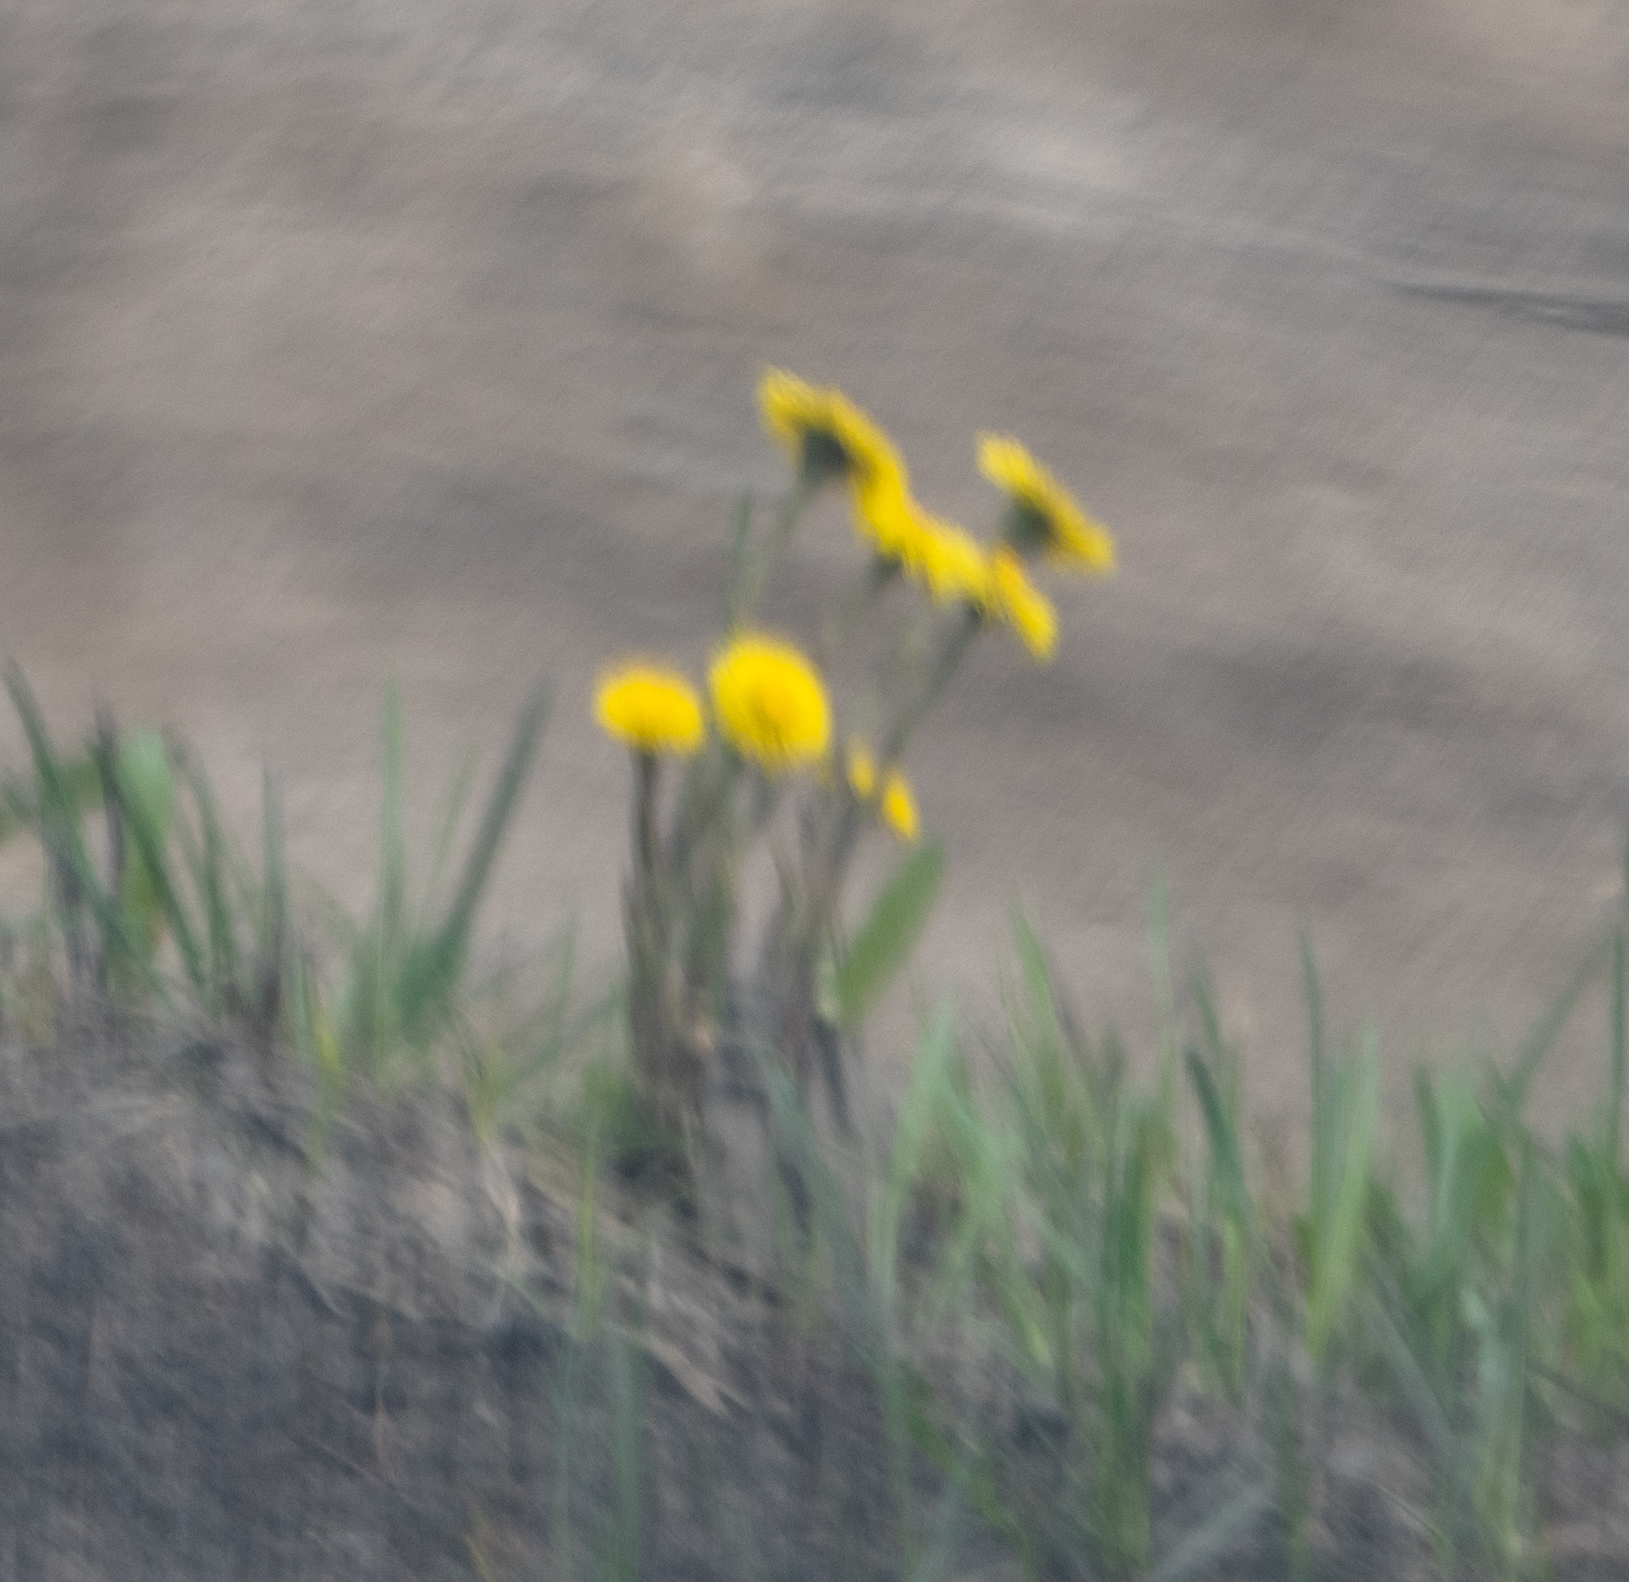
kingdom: Plantae
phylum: Tracheophyta
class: Magnoliopsida
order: Asterales
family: Asteraceae
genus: Tussilago
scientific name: Tussilago farfara
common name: Coltsfoot
